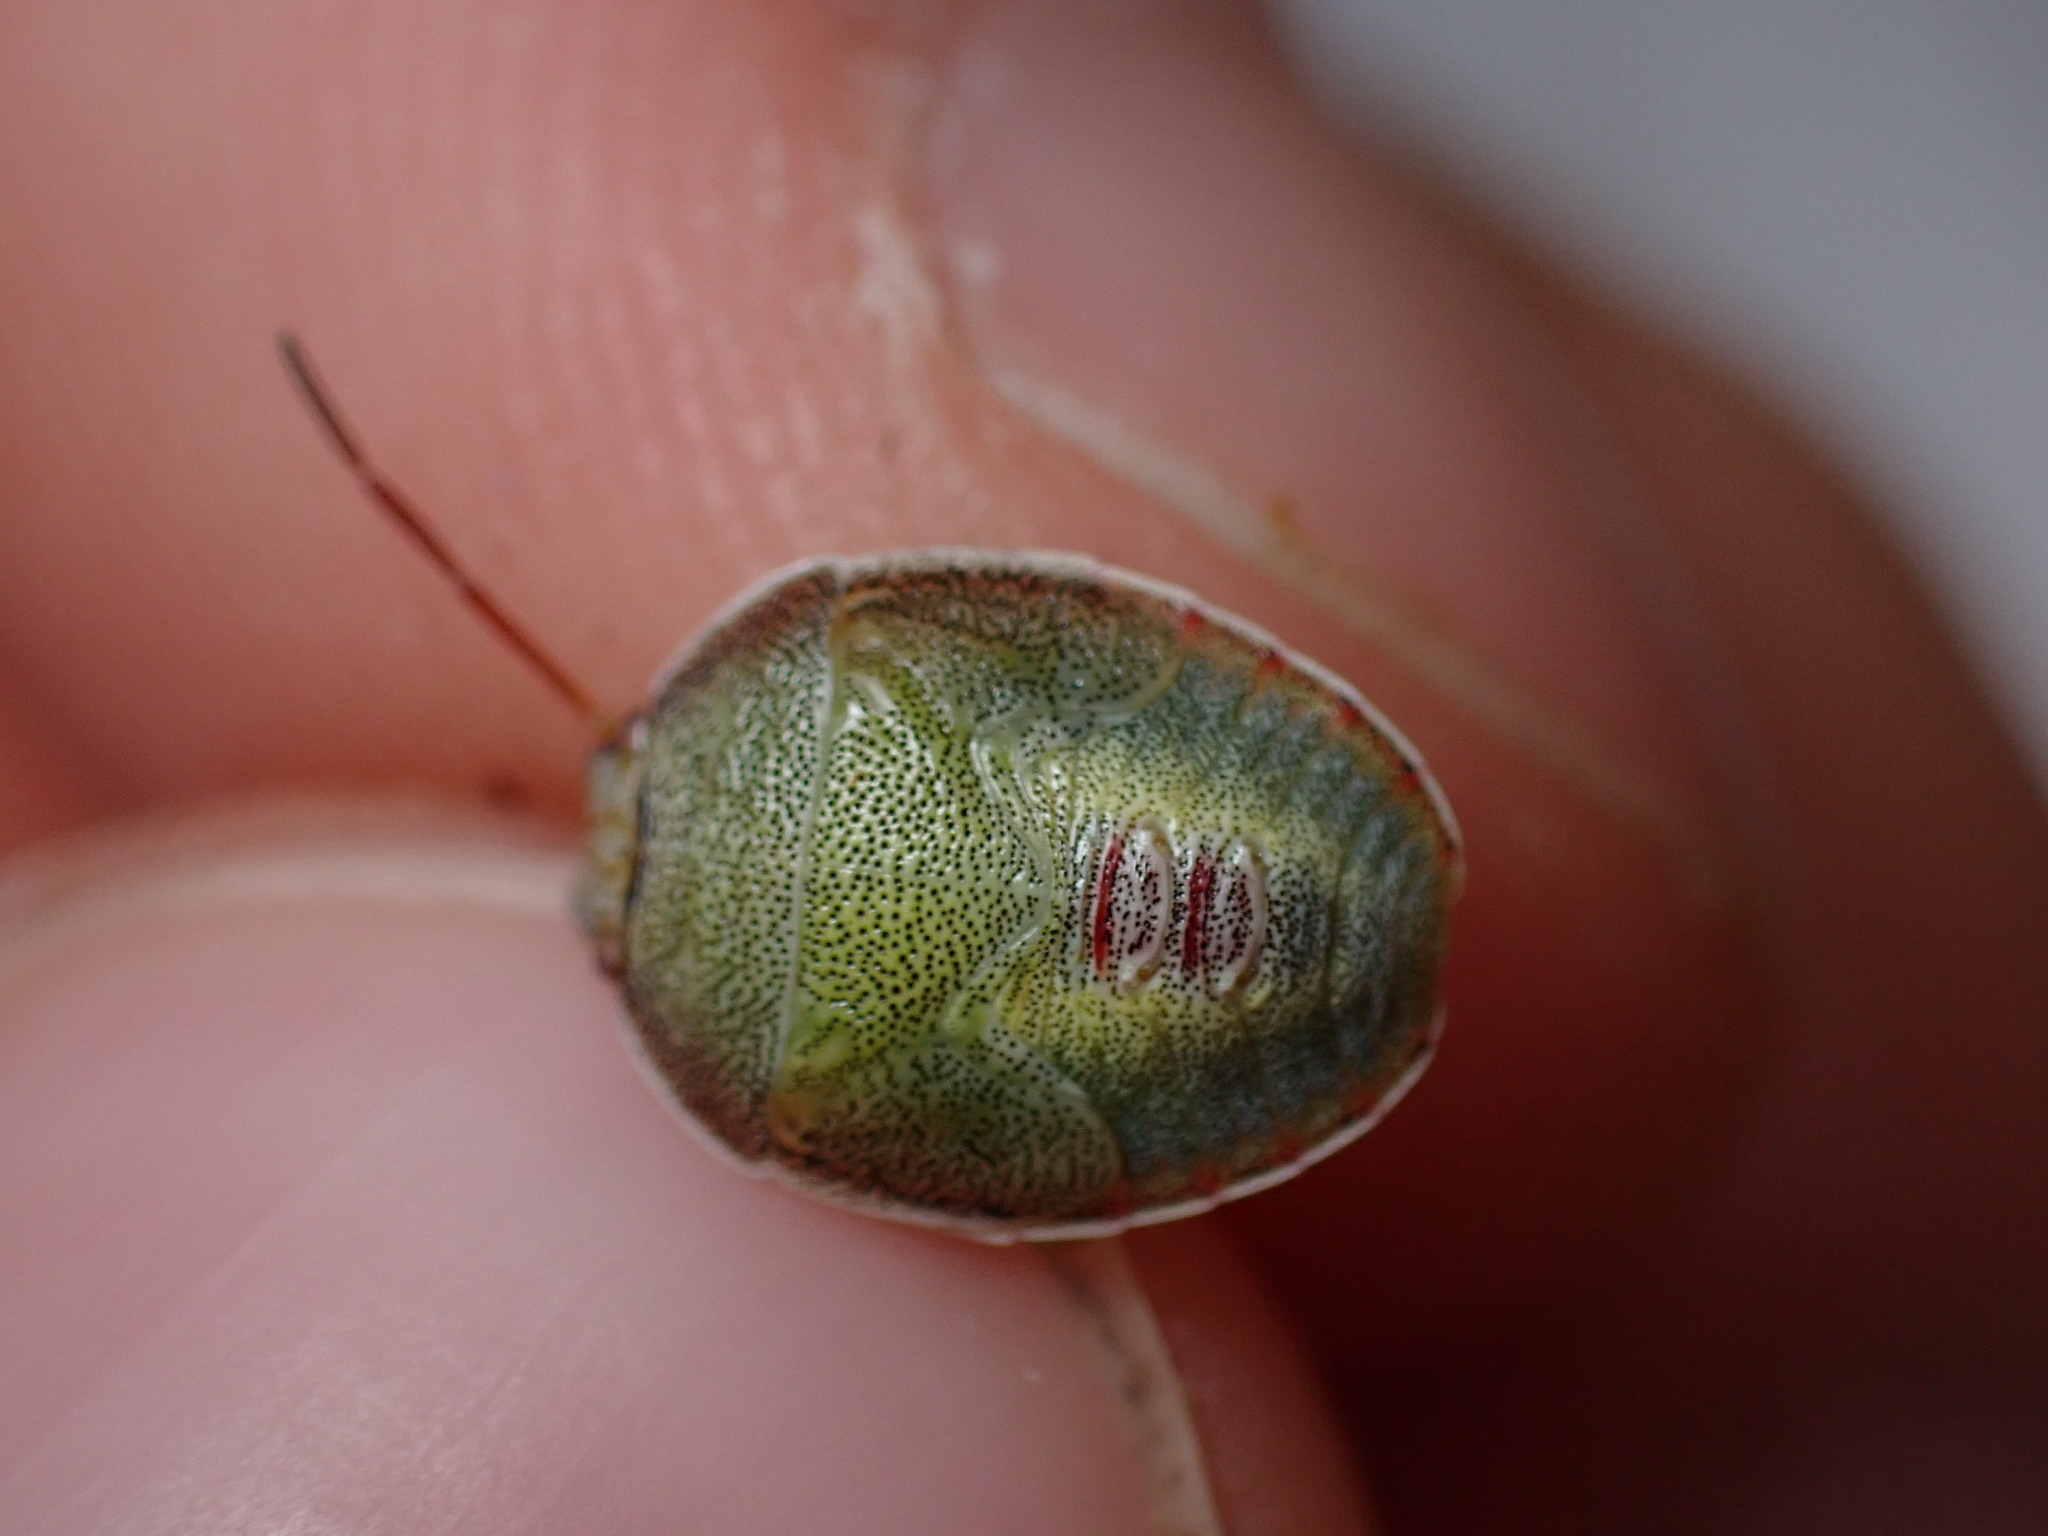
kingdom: Animalia
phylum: Arthropoda
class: Insecta
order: Hemiptera
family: Pentatomidae
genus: Piezodorus
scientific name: Piezodorus lituratus
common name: Stink bug
